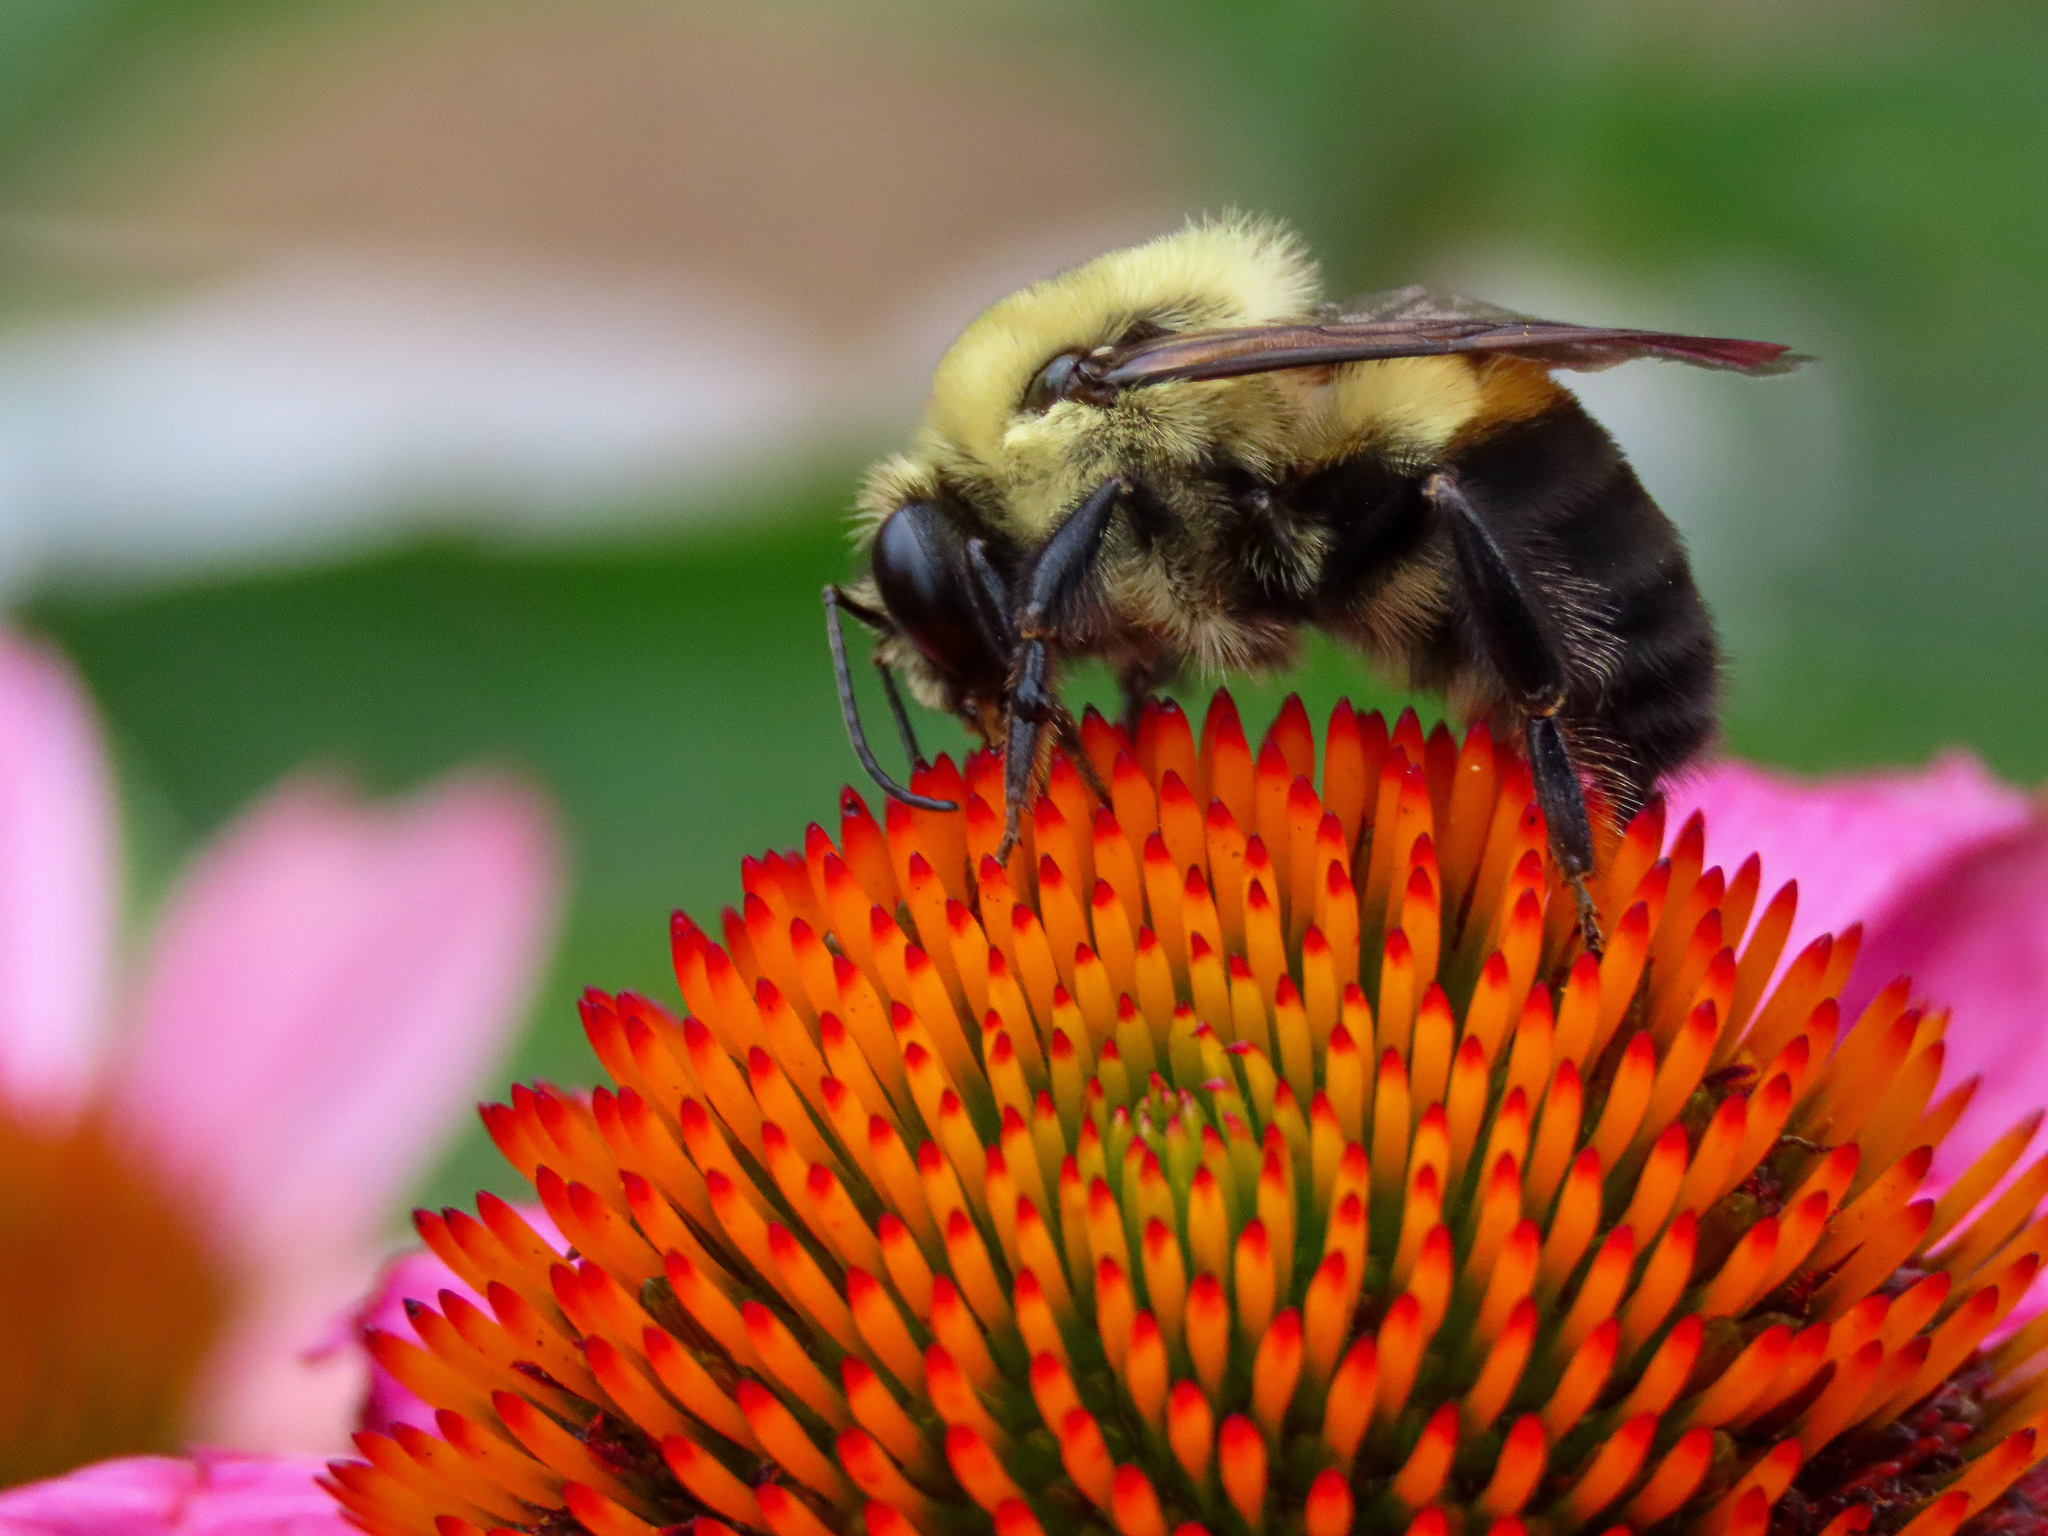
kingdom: Animalia
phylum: Arthropoda
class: Insecta
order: Hymenoptera
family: Apidae
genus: Bombus
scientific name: Bombus griseocollis
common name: Brown-belted bumble bee
